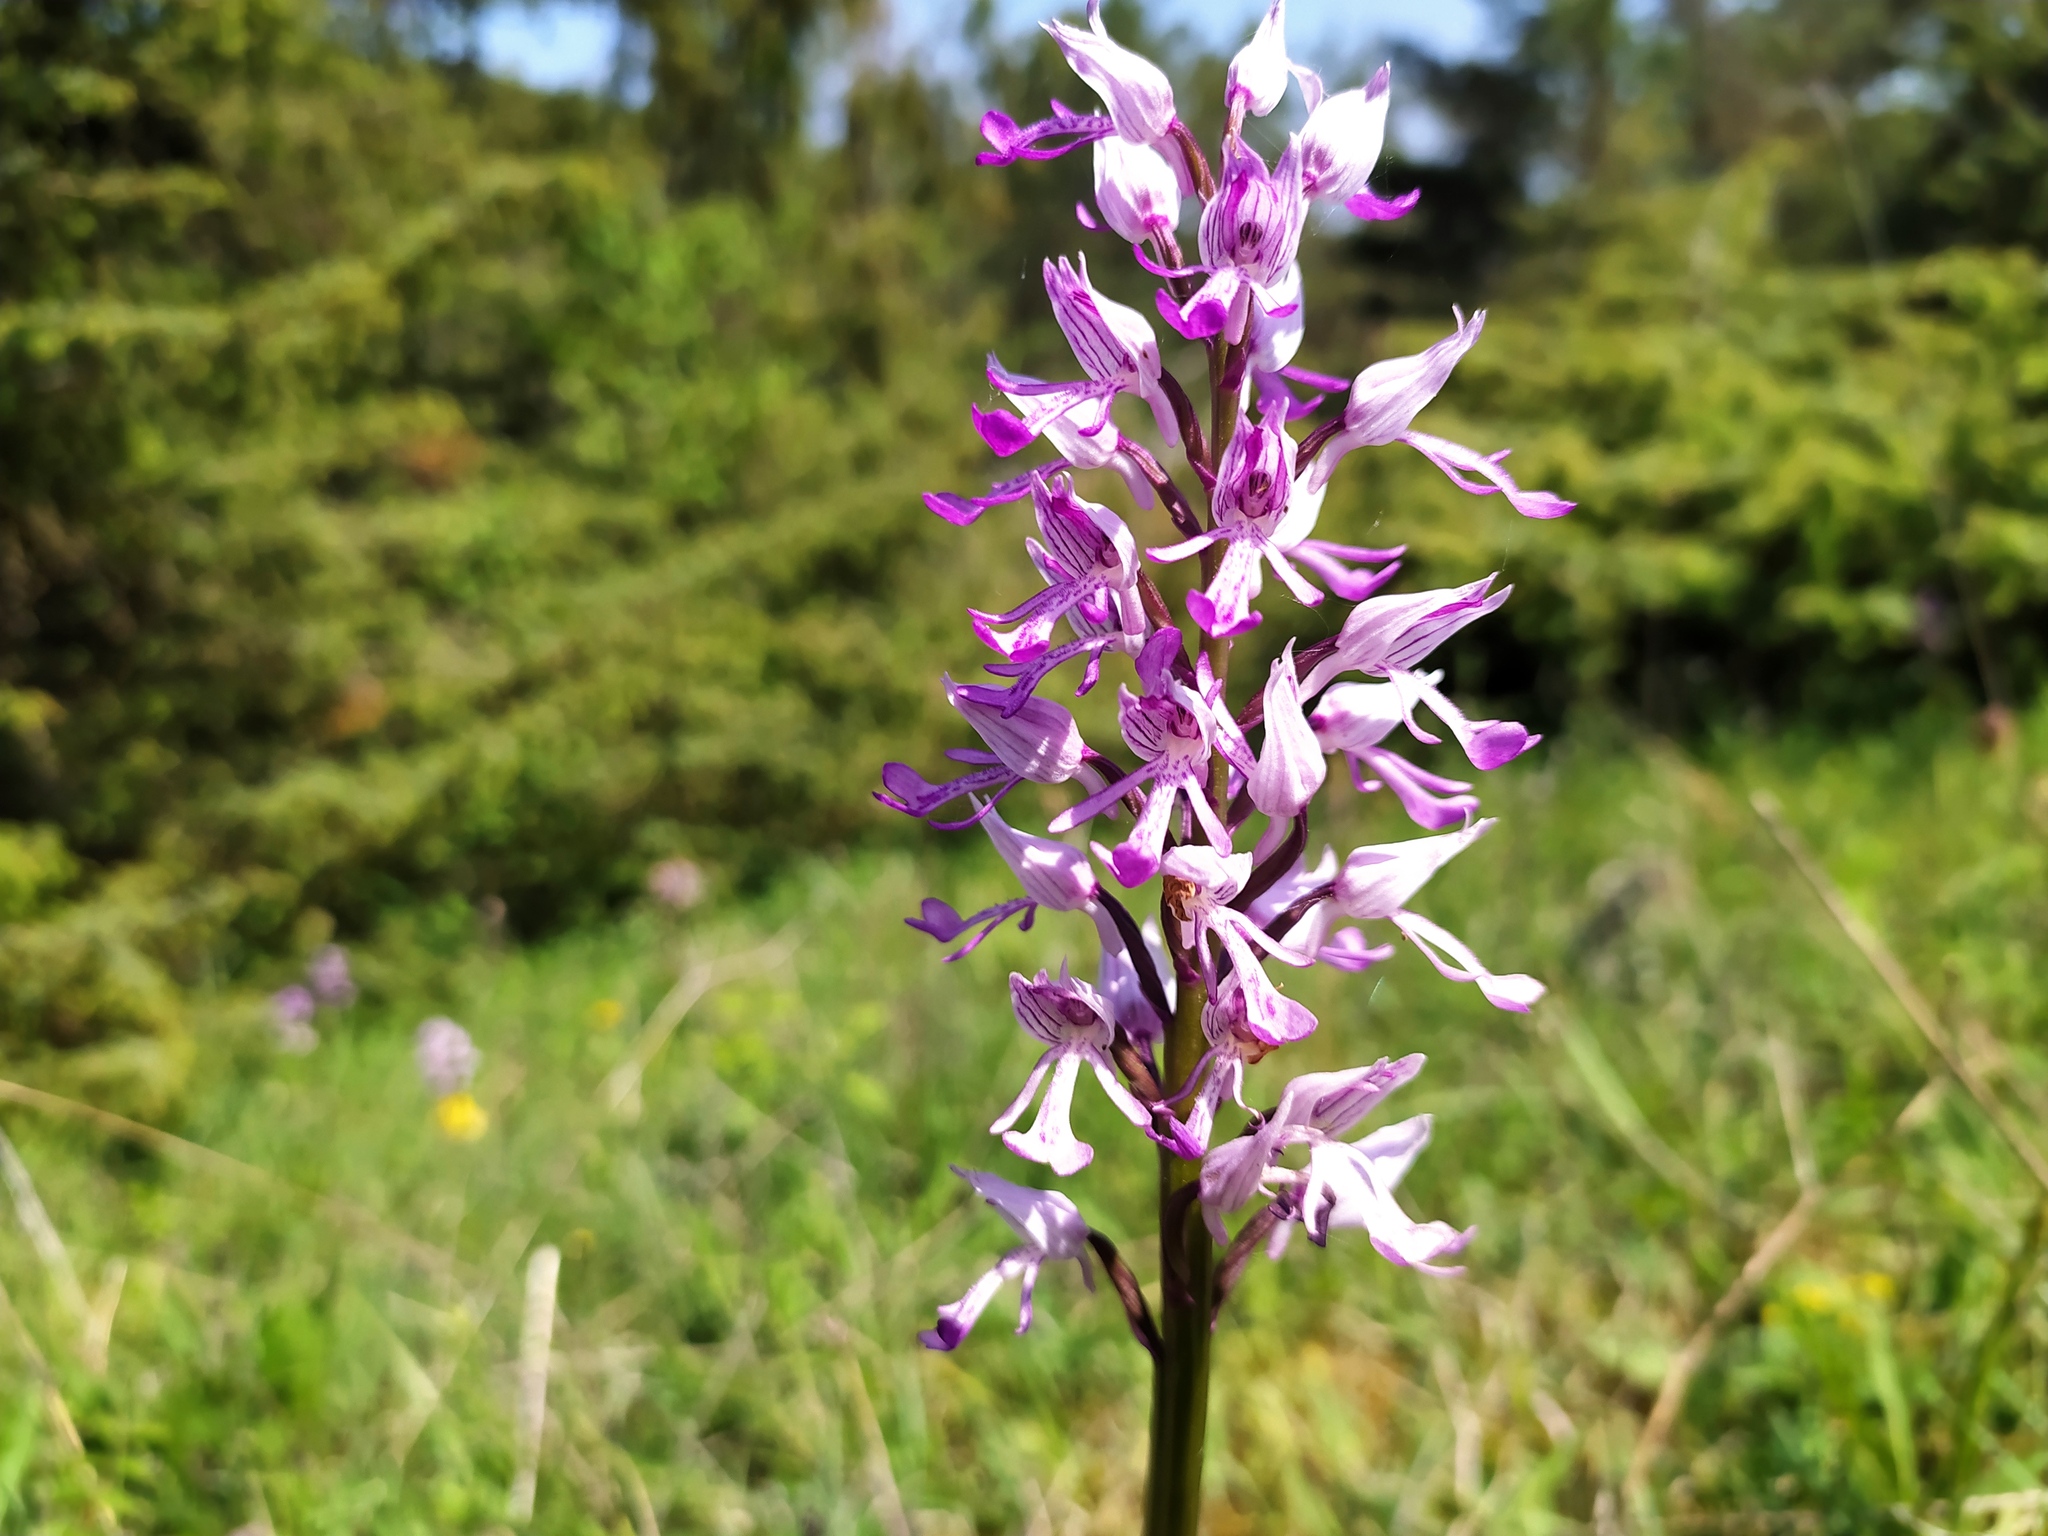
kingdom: Plantae
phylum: Tracheophyta
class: Liliopsida
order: Asparagales
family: Orchidaceae
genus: Orchis
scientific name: Orchis militaris
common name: Military orchid
